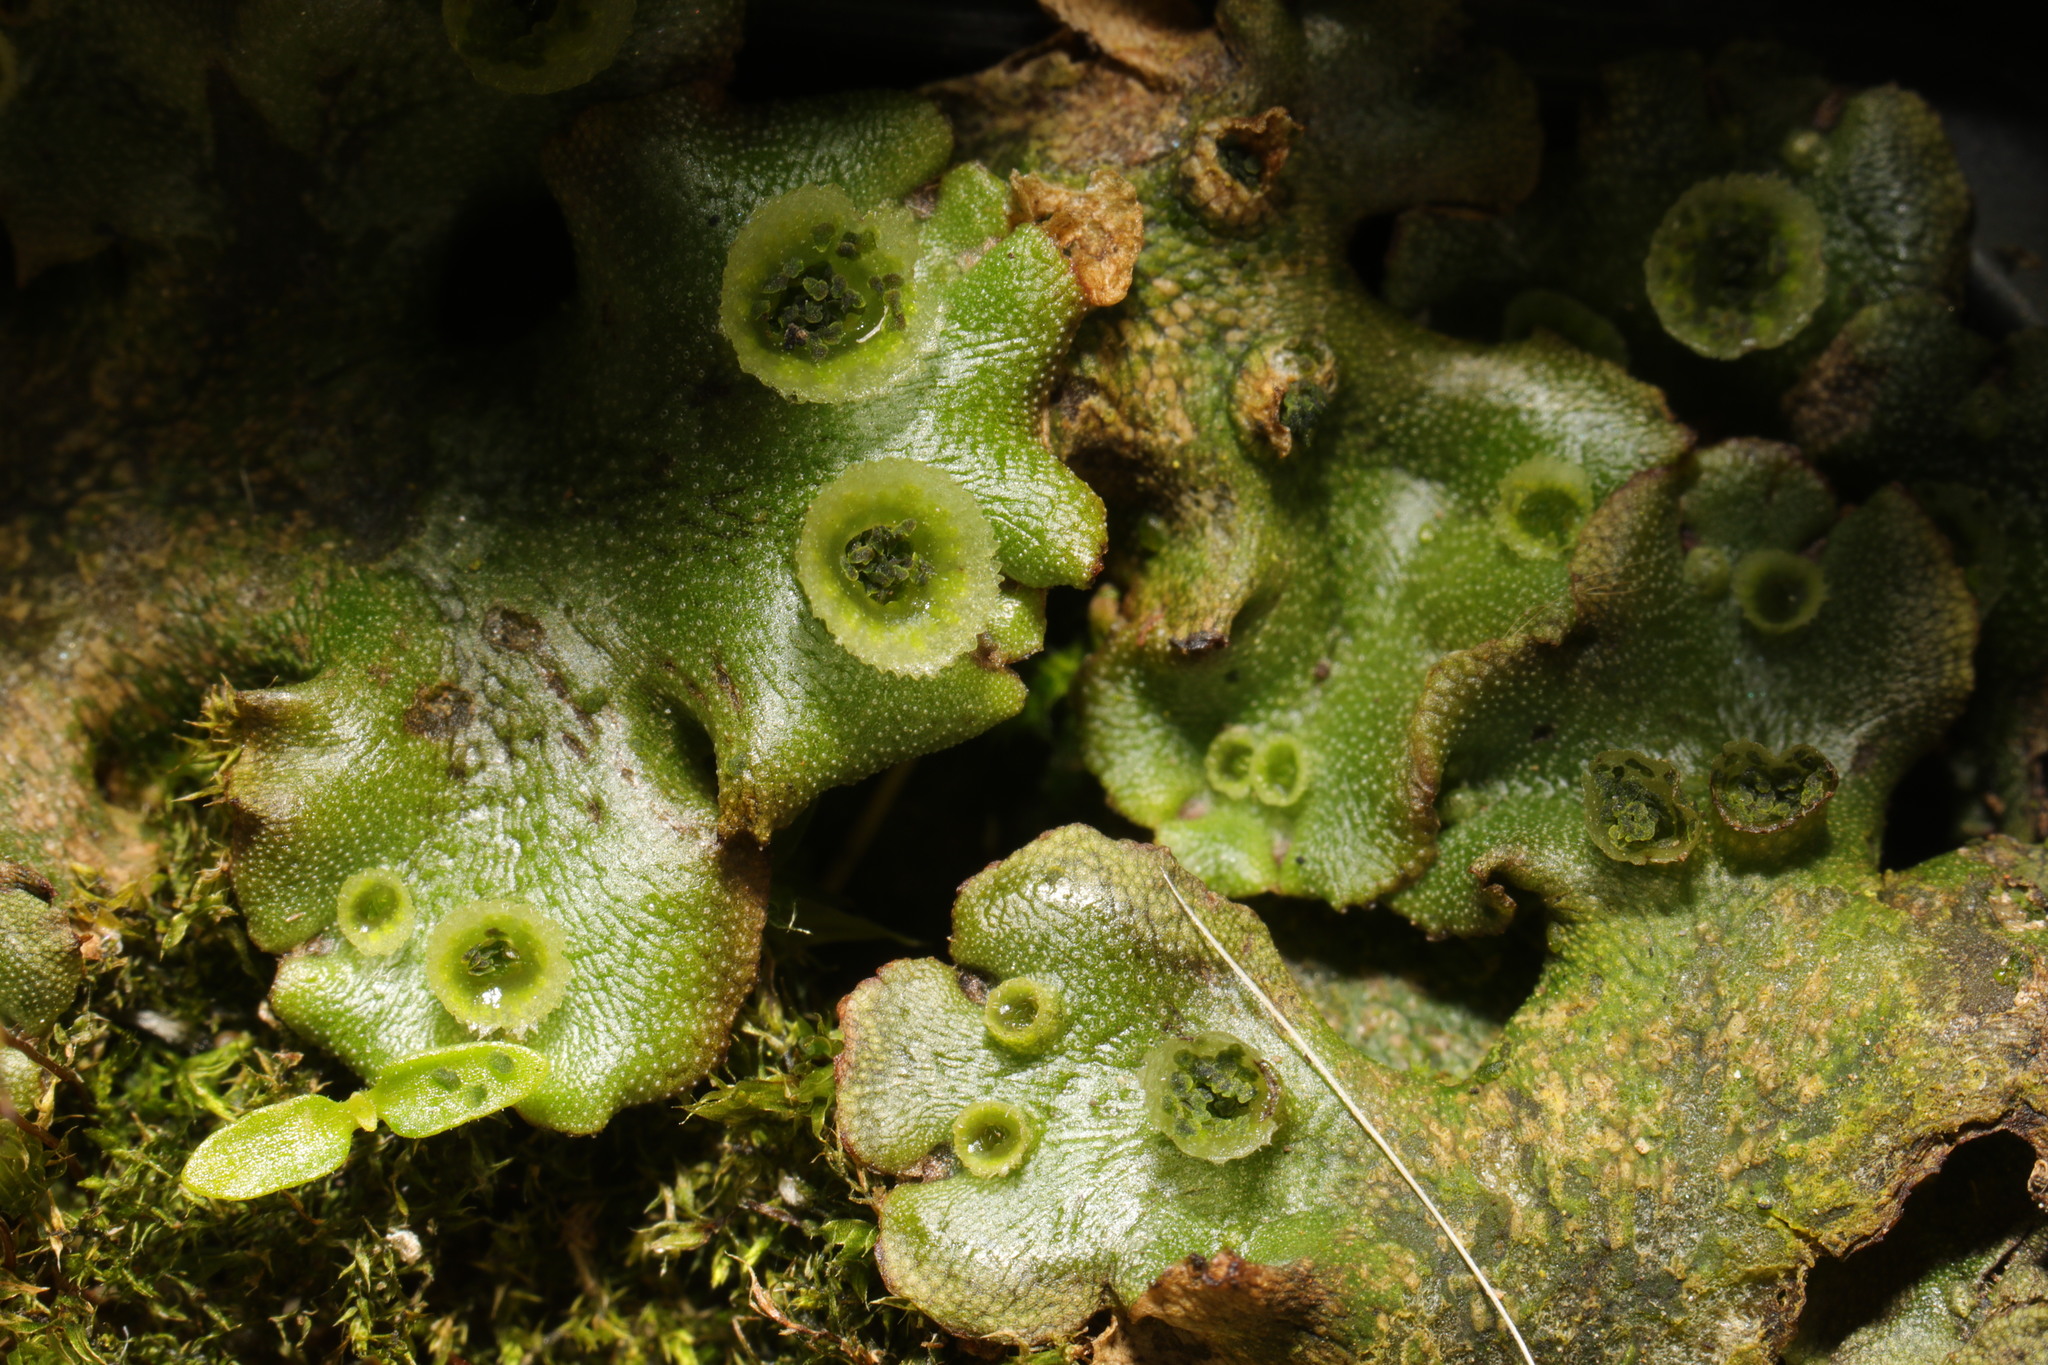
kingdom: Plantae
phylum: Marchantiophyta
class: Marchantiopsida
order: Marchantiales
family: Marchantiaceae
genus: Marchantia
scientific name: Marchantia polymorpha
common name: Common liverwort
